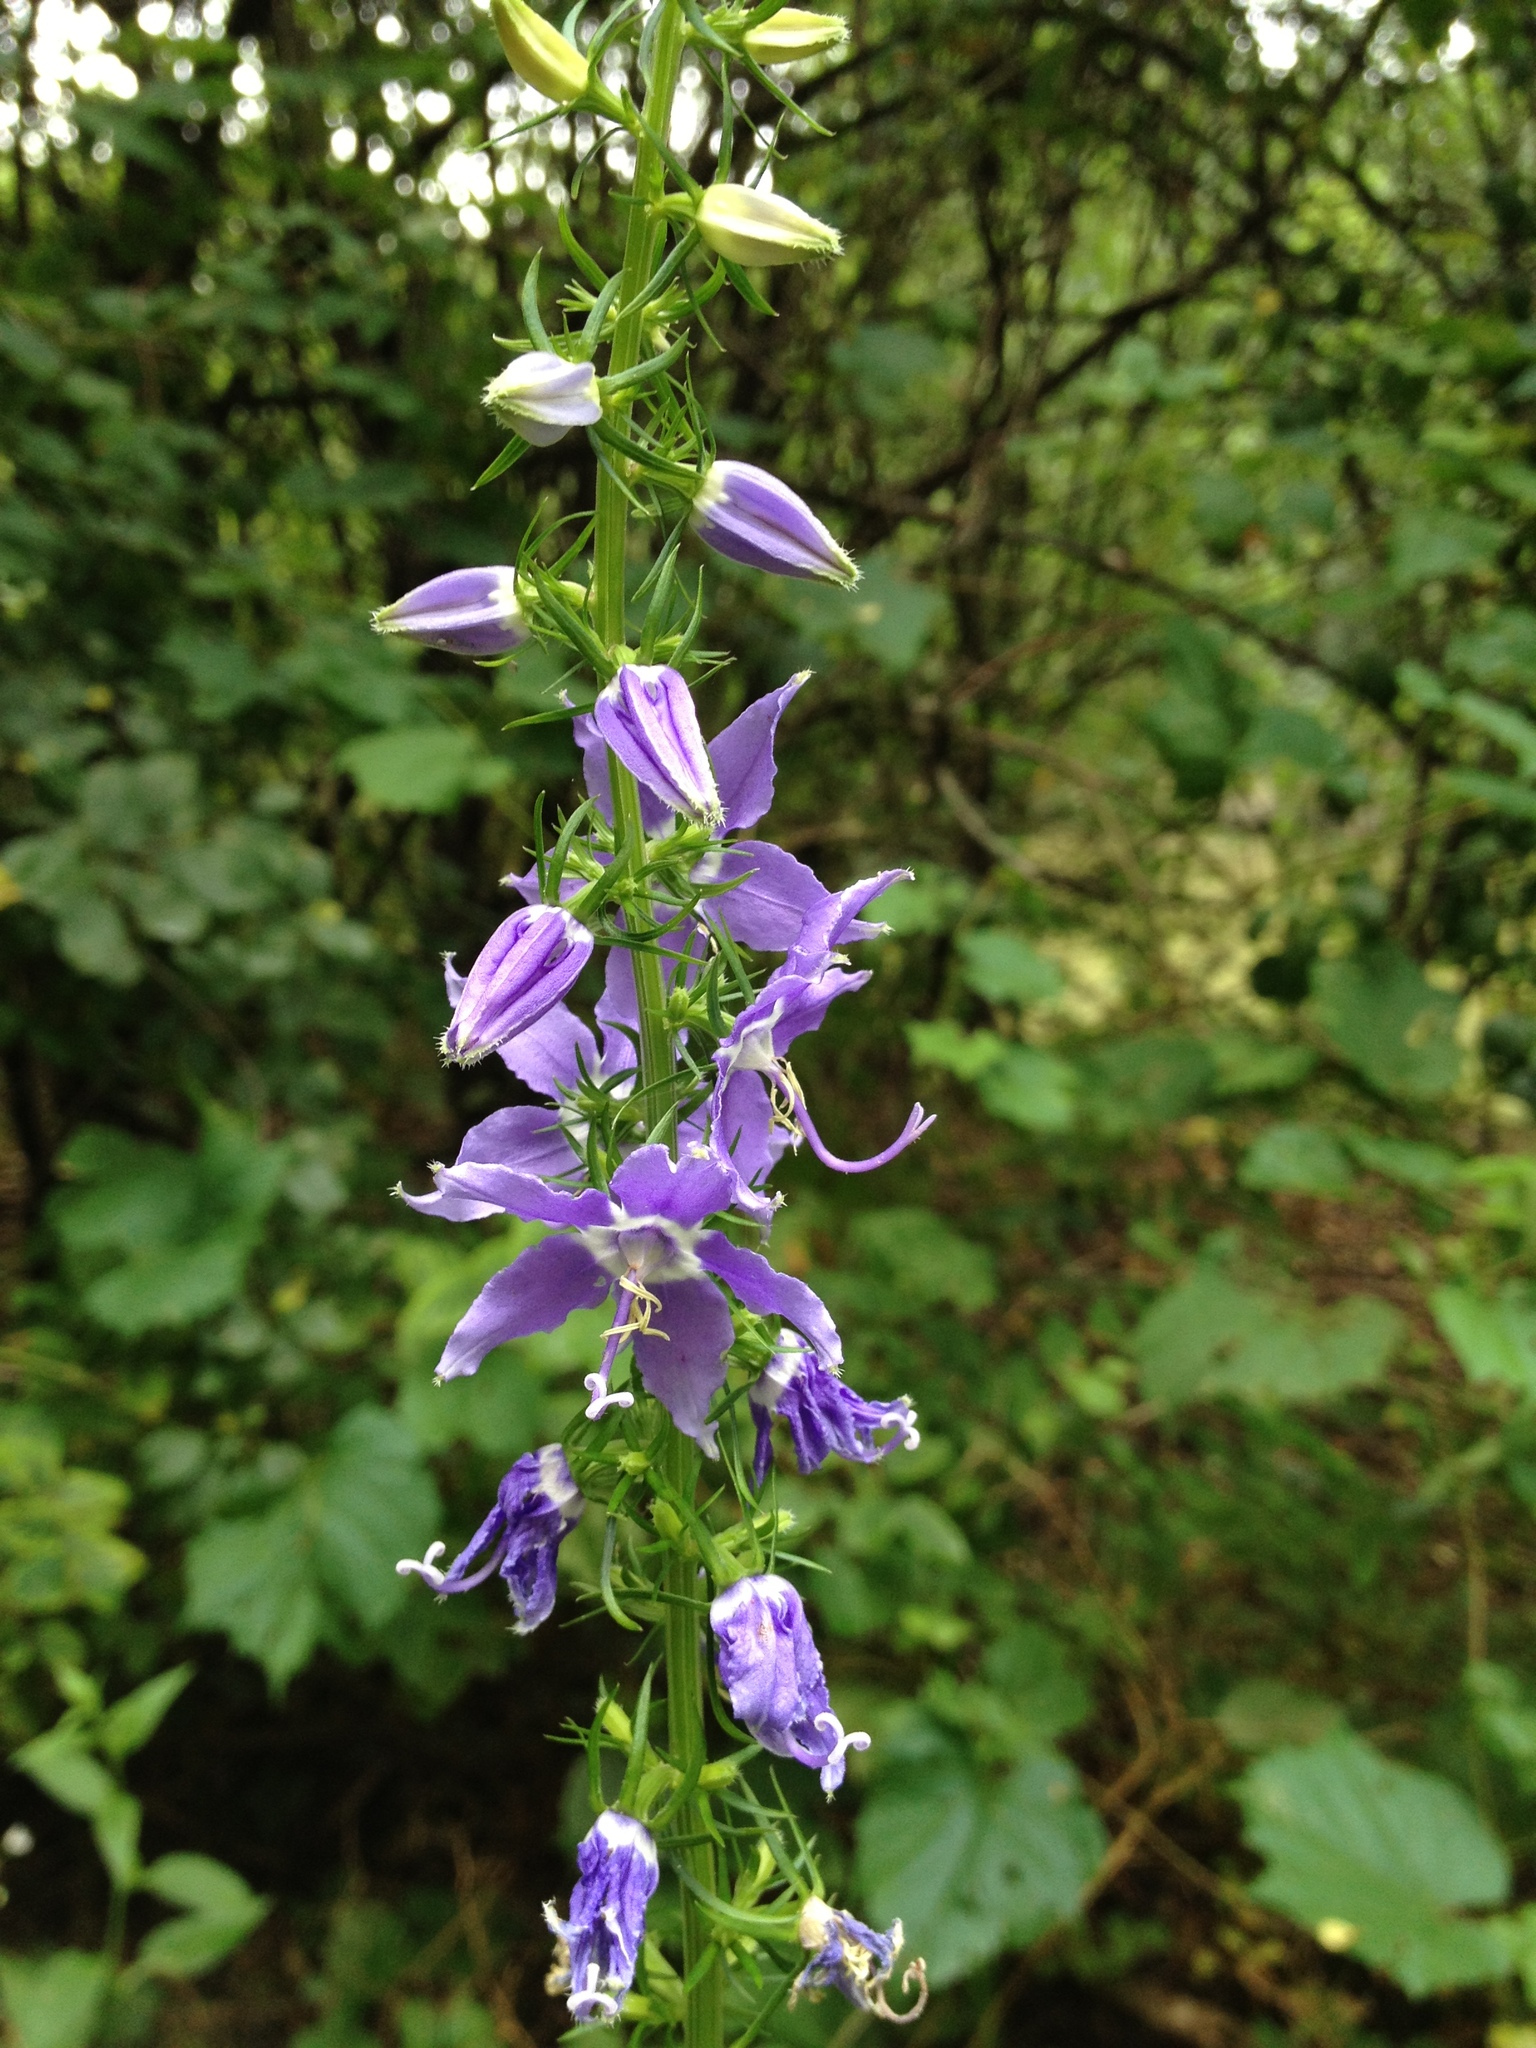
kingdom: Plantae
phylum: Tracheophyta
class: Magnoliopsida
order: Asterales
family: Campanulaceae
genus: Campanulastrum
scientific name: Campanulastrum americanum
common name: American bellflower
